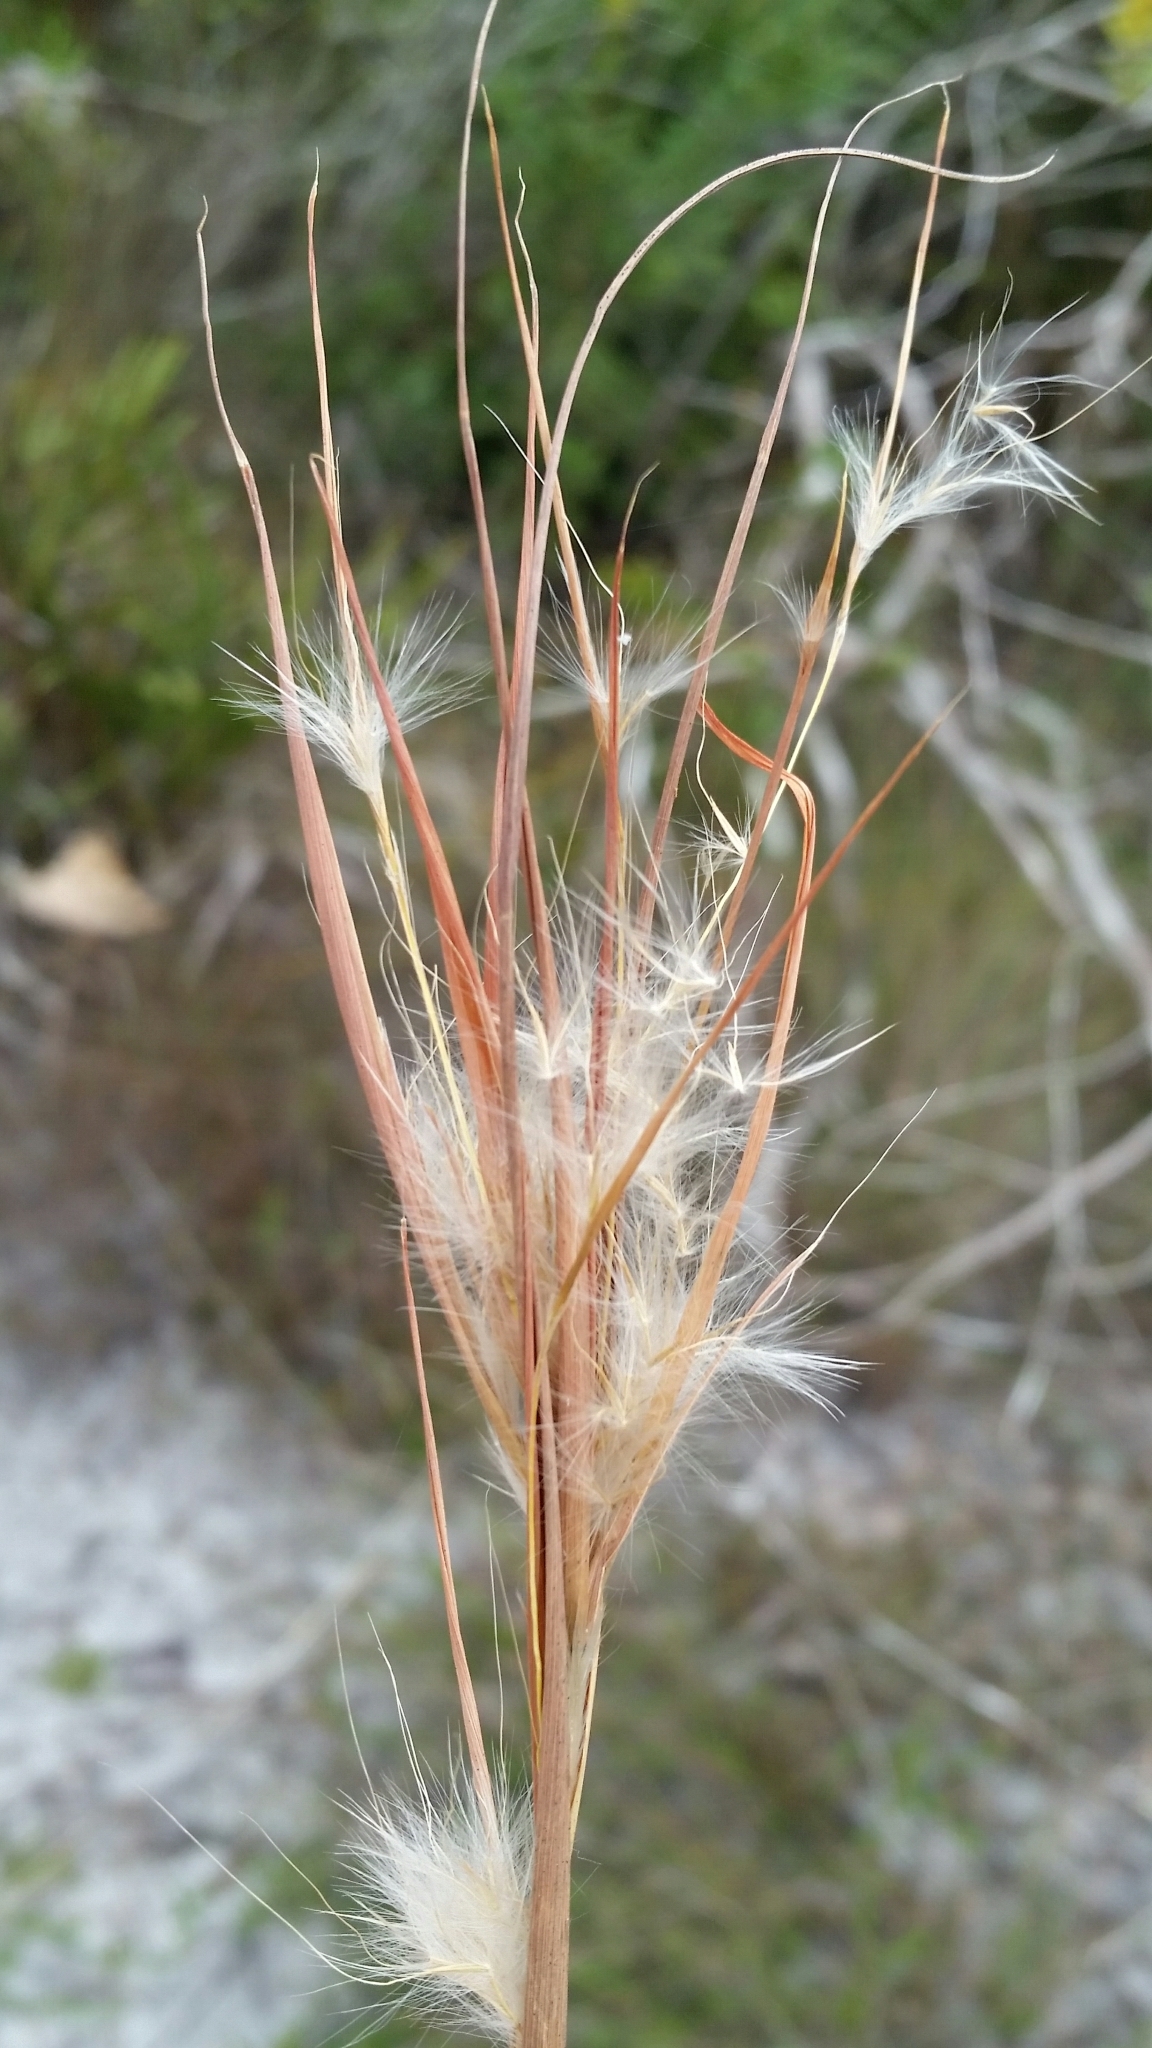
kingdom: Plantae
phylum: Tracheophyta
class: Liliopsida
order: Poales
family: Poaceae
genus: Andropogon
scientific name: Andropogon gyrans
